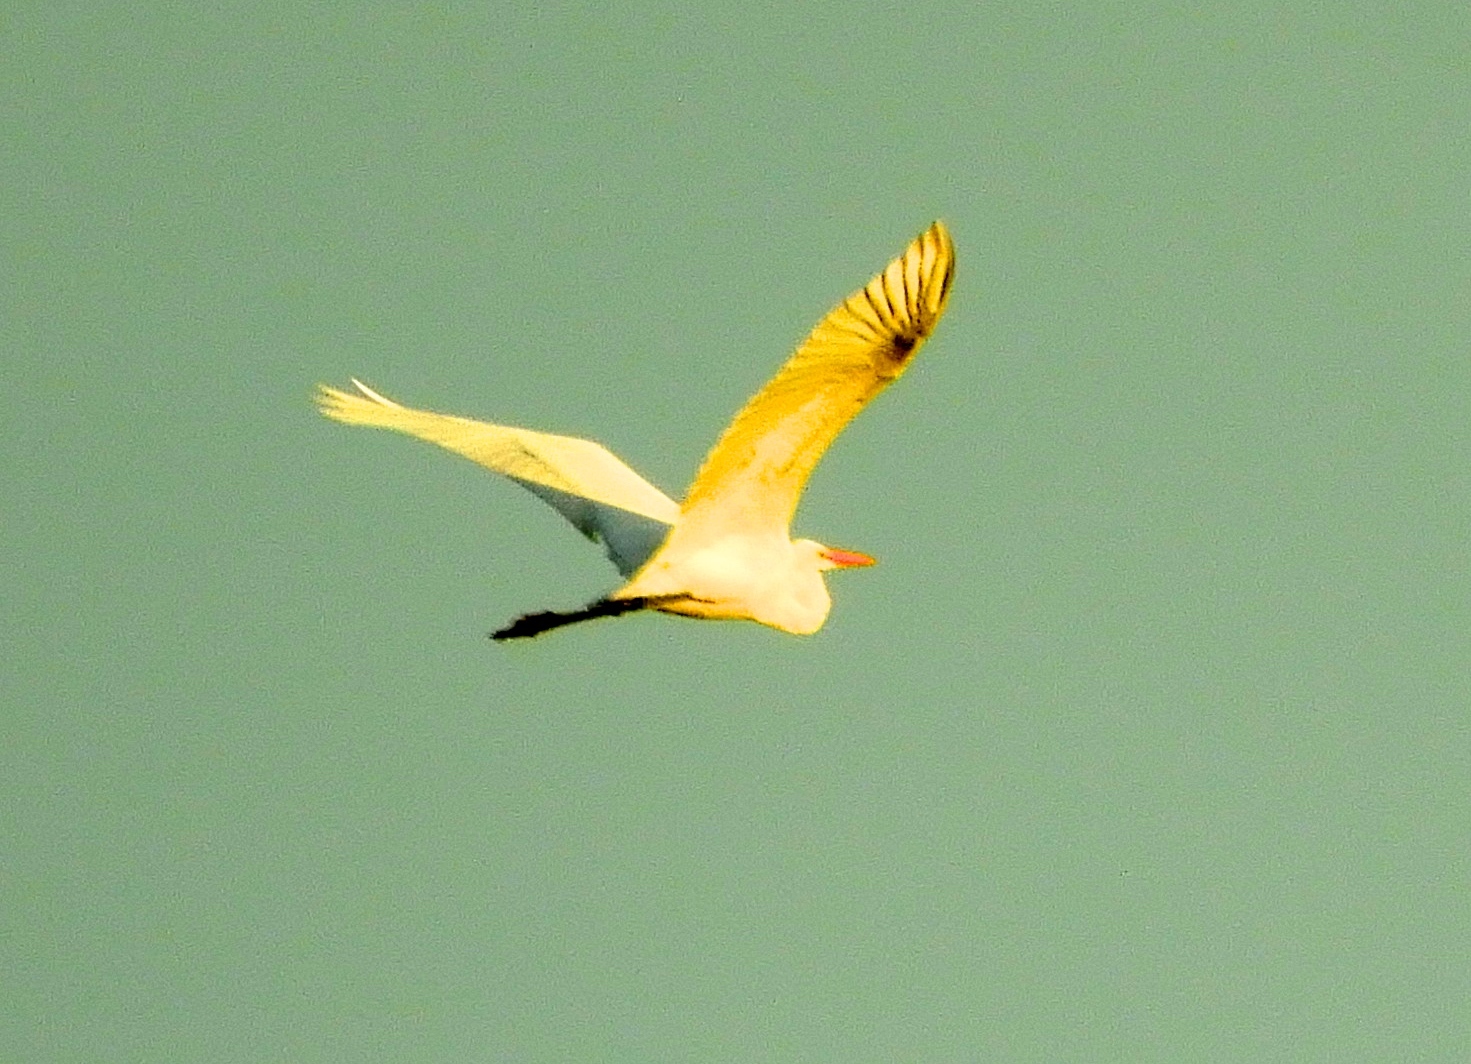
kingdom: Animalia
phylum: Chordata
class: Aves
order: Pelecaniformes
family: Ardeidae
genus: Bubulcus
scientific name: Bubulcus ibis
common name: Cattle egret
